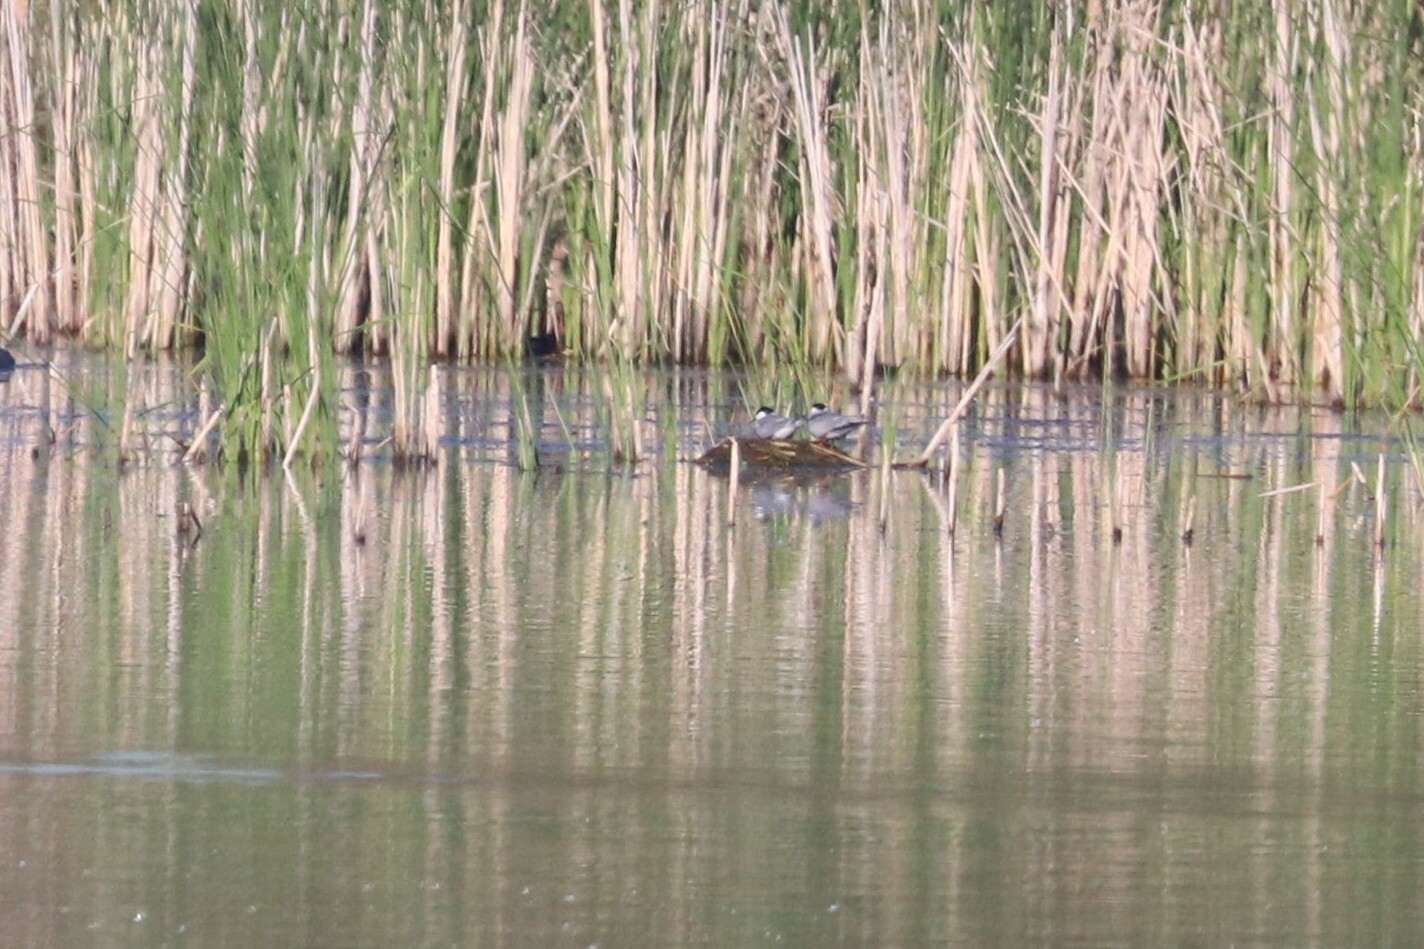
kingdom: Animalia
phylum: Chordata
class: Aves
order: Charadriiformes
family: Laridae
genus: Sterna
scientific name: Sterna hirundo
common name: Common tern
